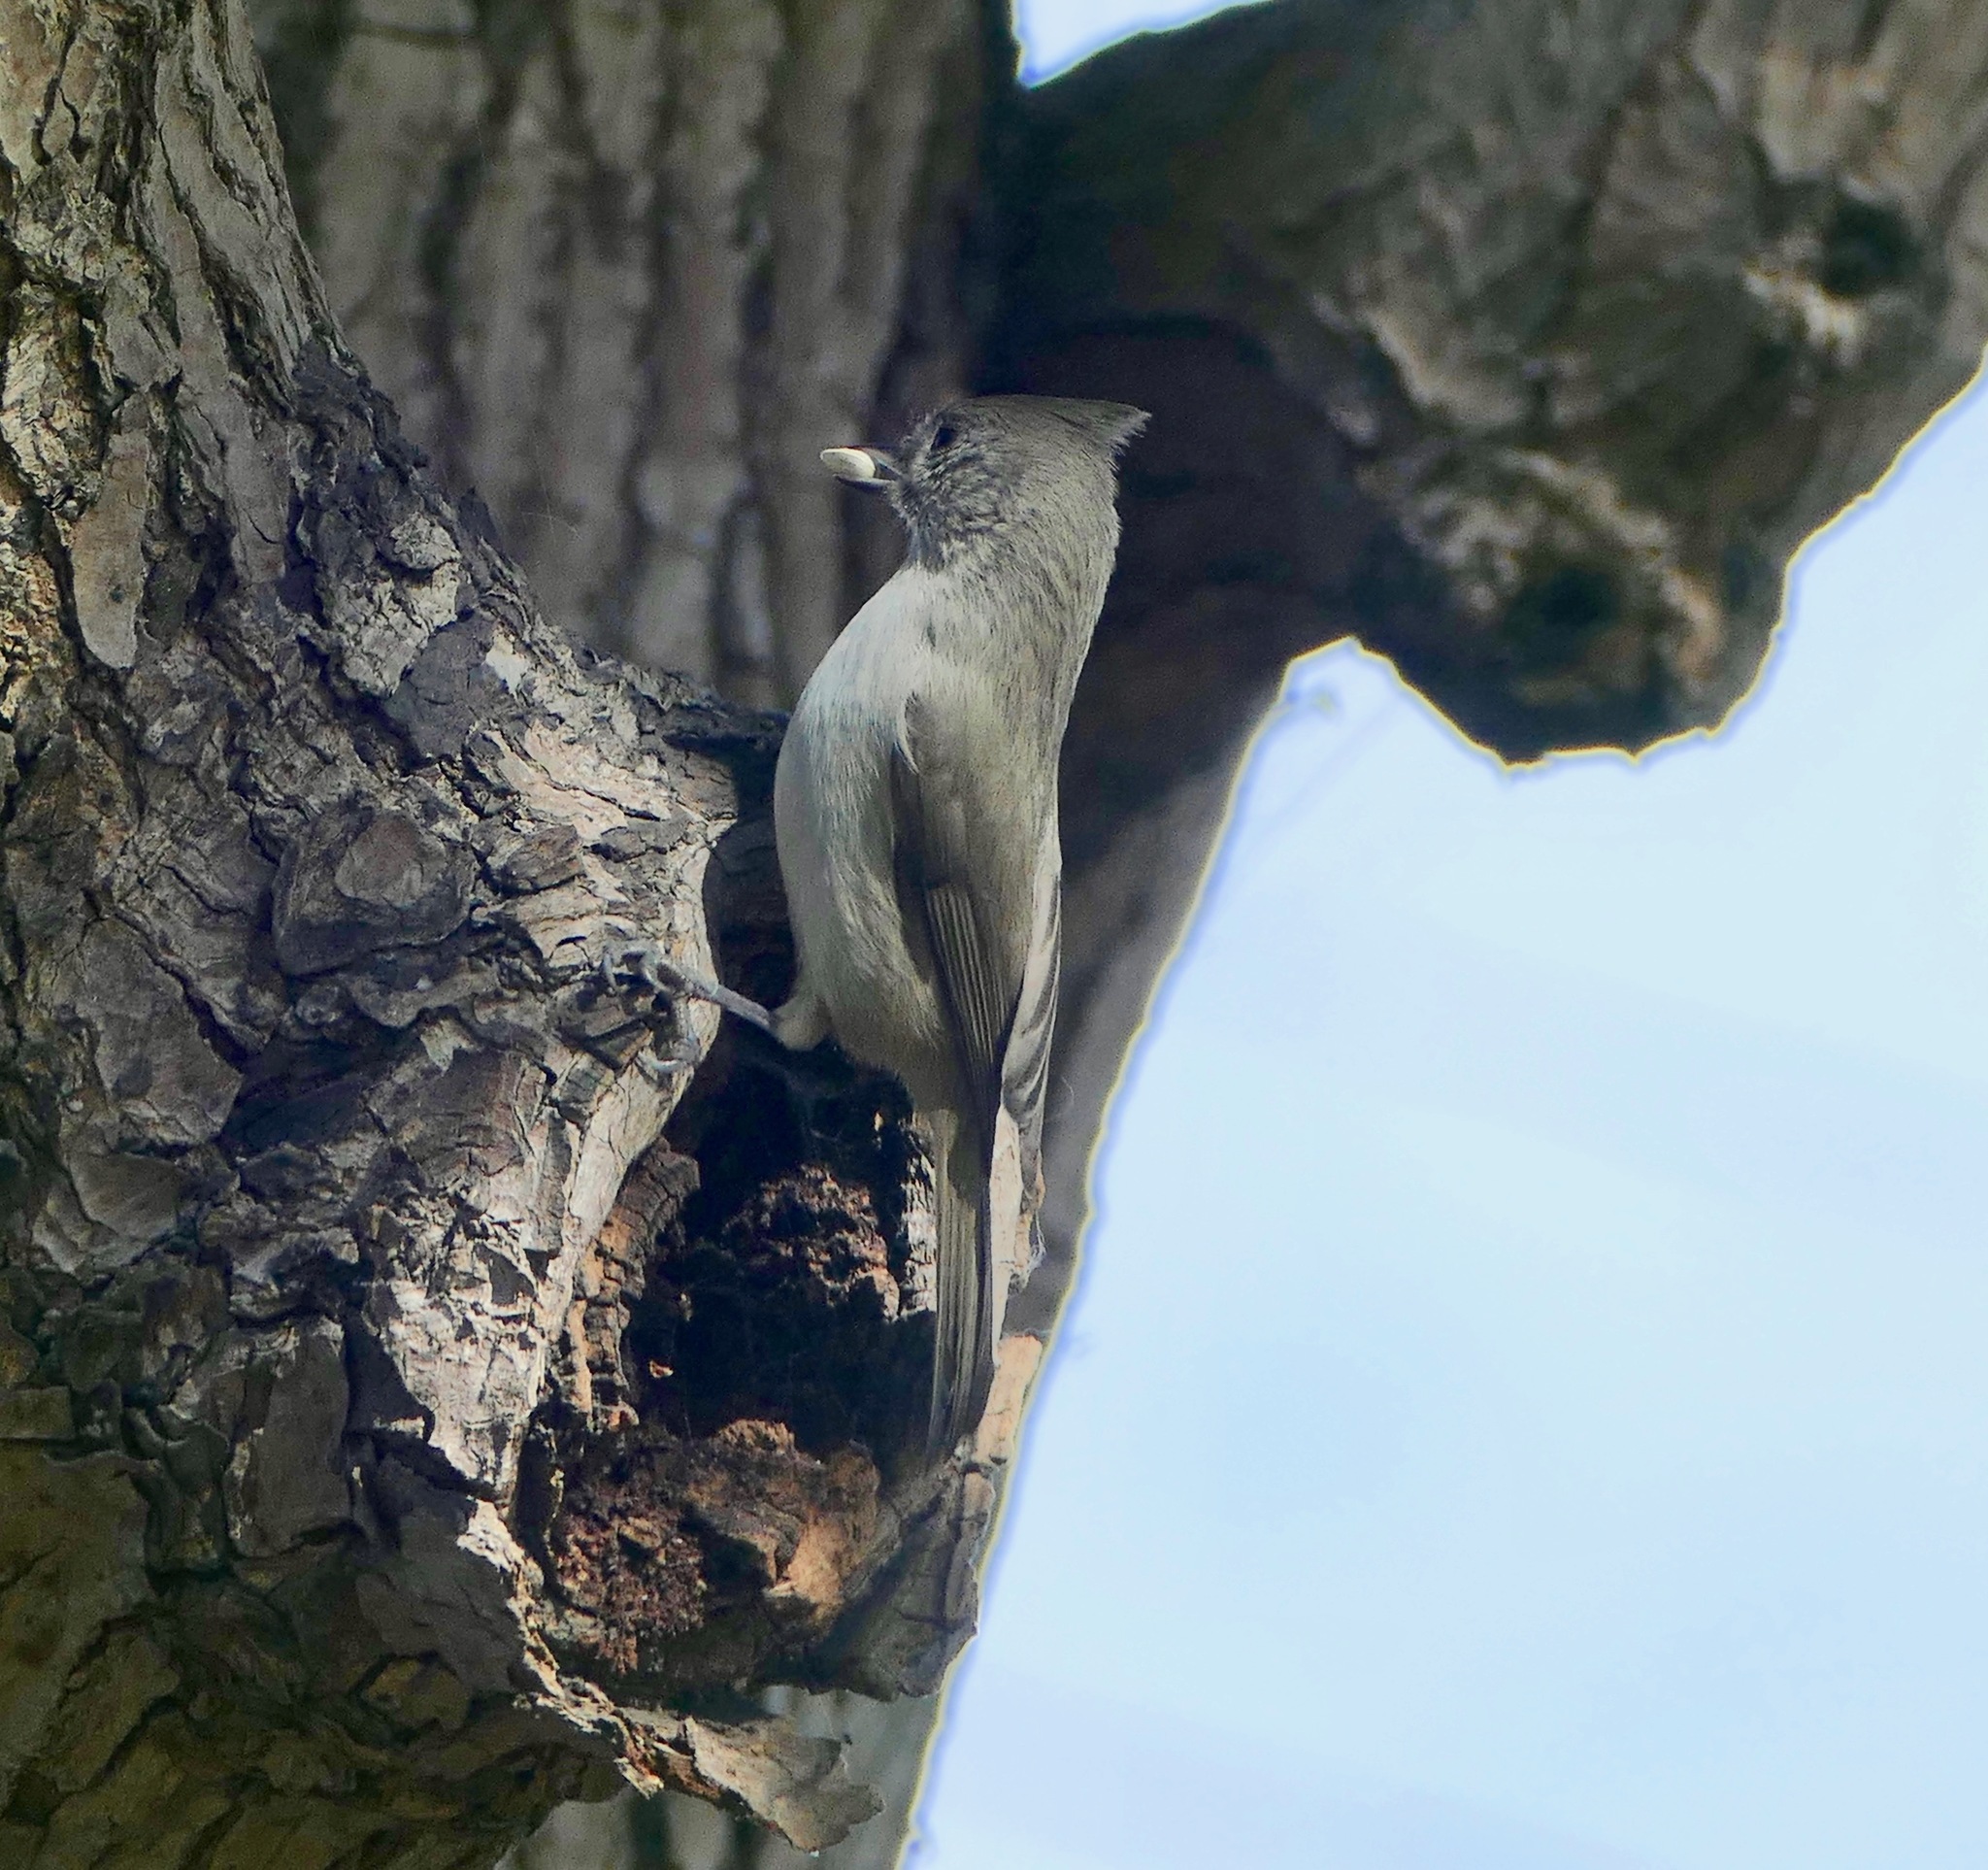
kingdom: Animalia
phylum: Chordata
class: Aves
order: Passeriformes
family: Paridae
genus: Baeolophus
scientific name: Baeolophus inornatus
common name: Oak titmouse
